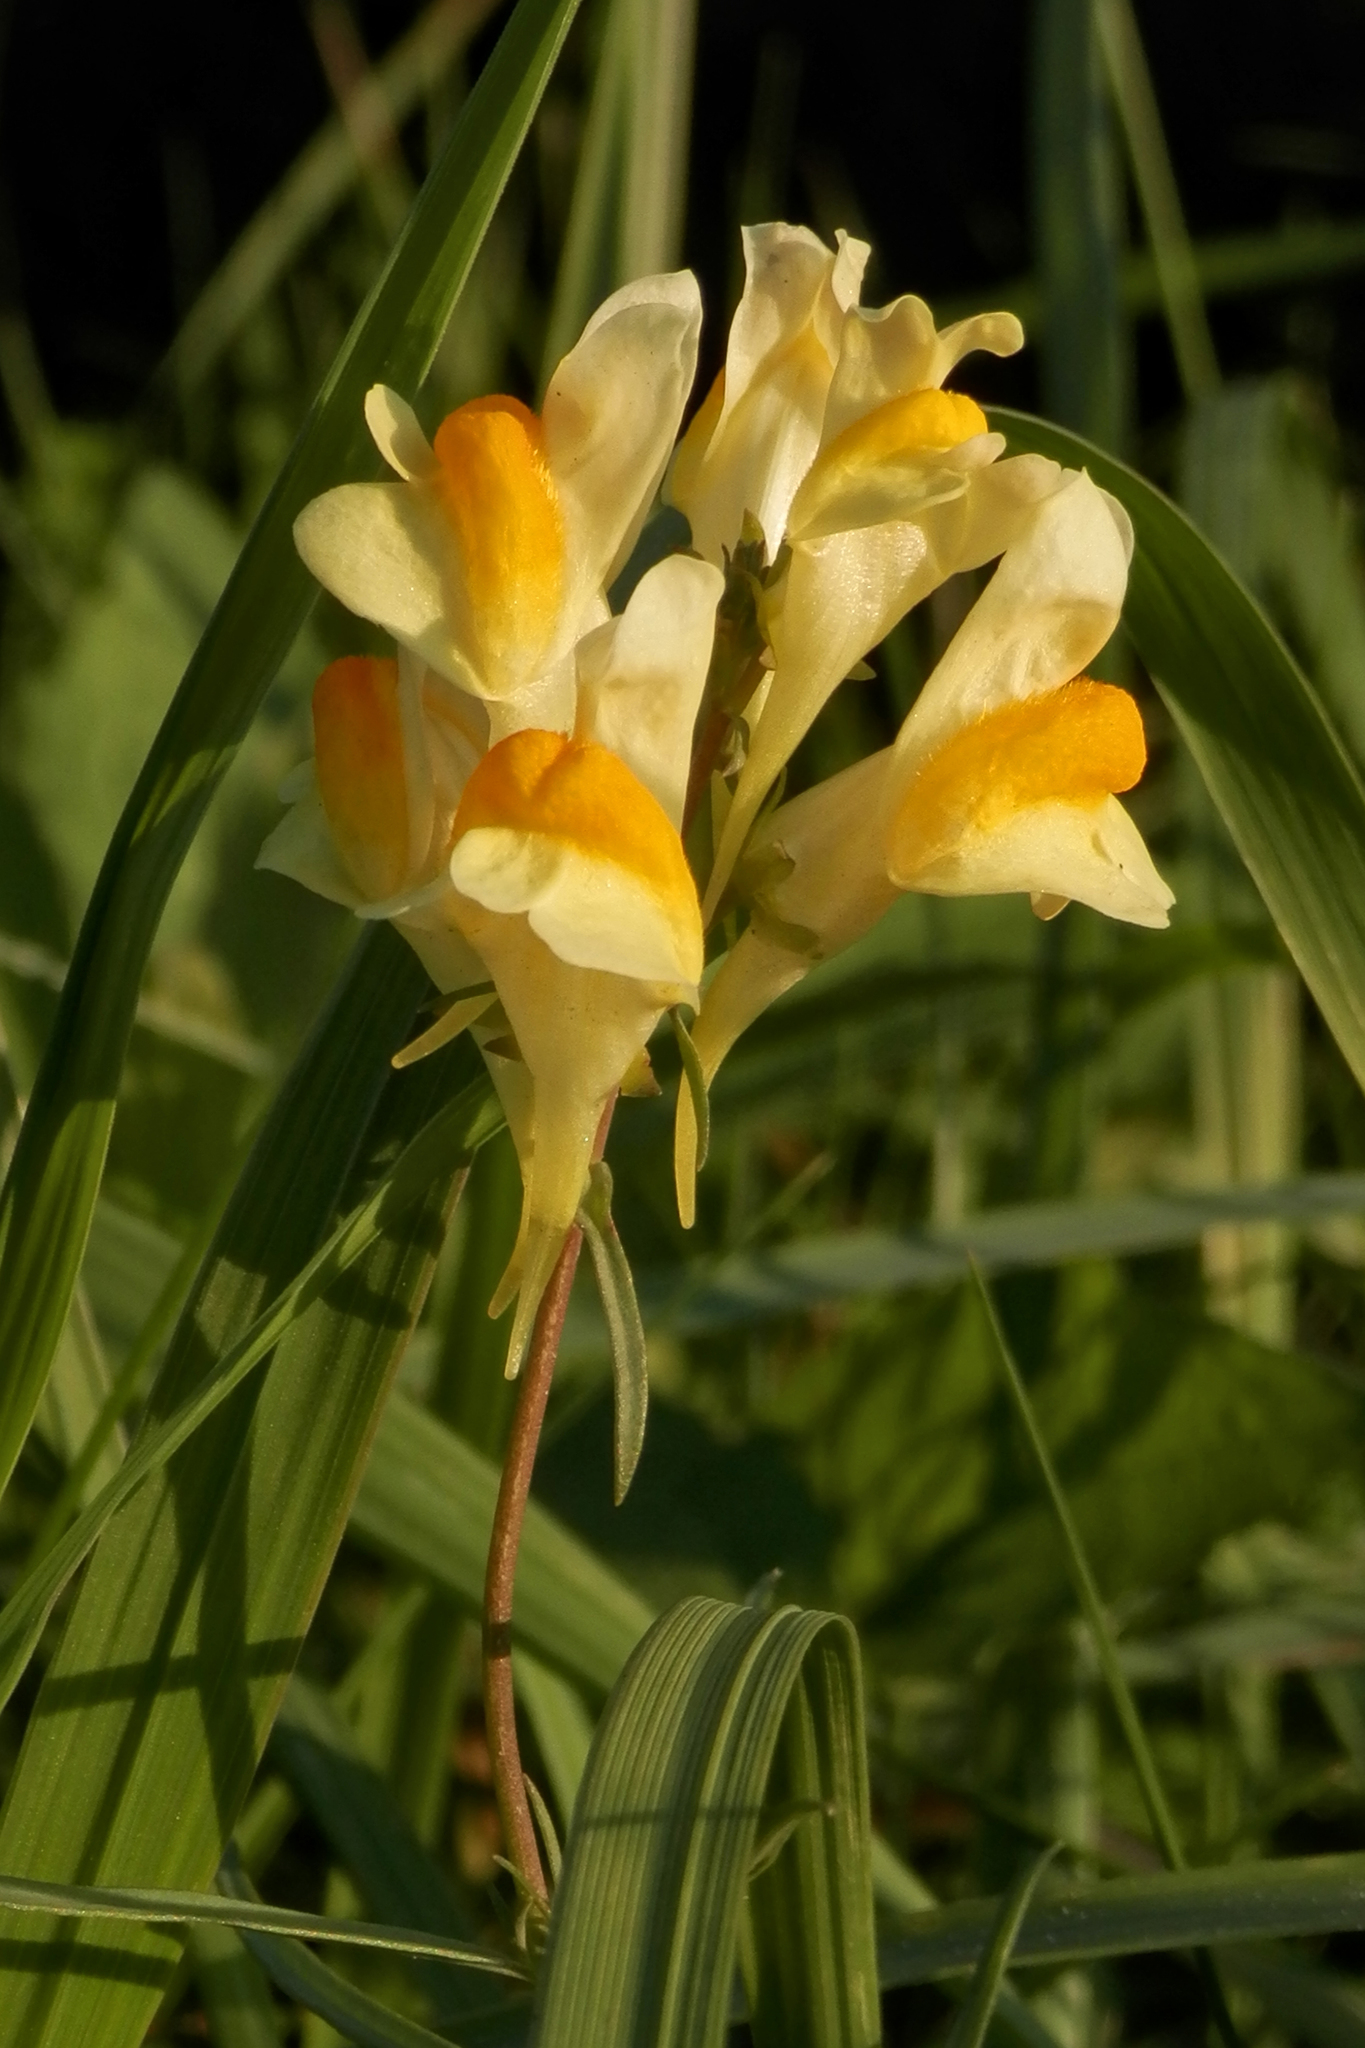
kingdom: Plantae
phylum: Tracheophyta
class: Magnoliopsida
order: Lamiales
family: Plantaginaceae
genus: Linaria
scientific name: Linaria vulgaris
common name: Butter and eggs
